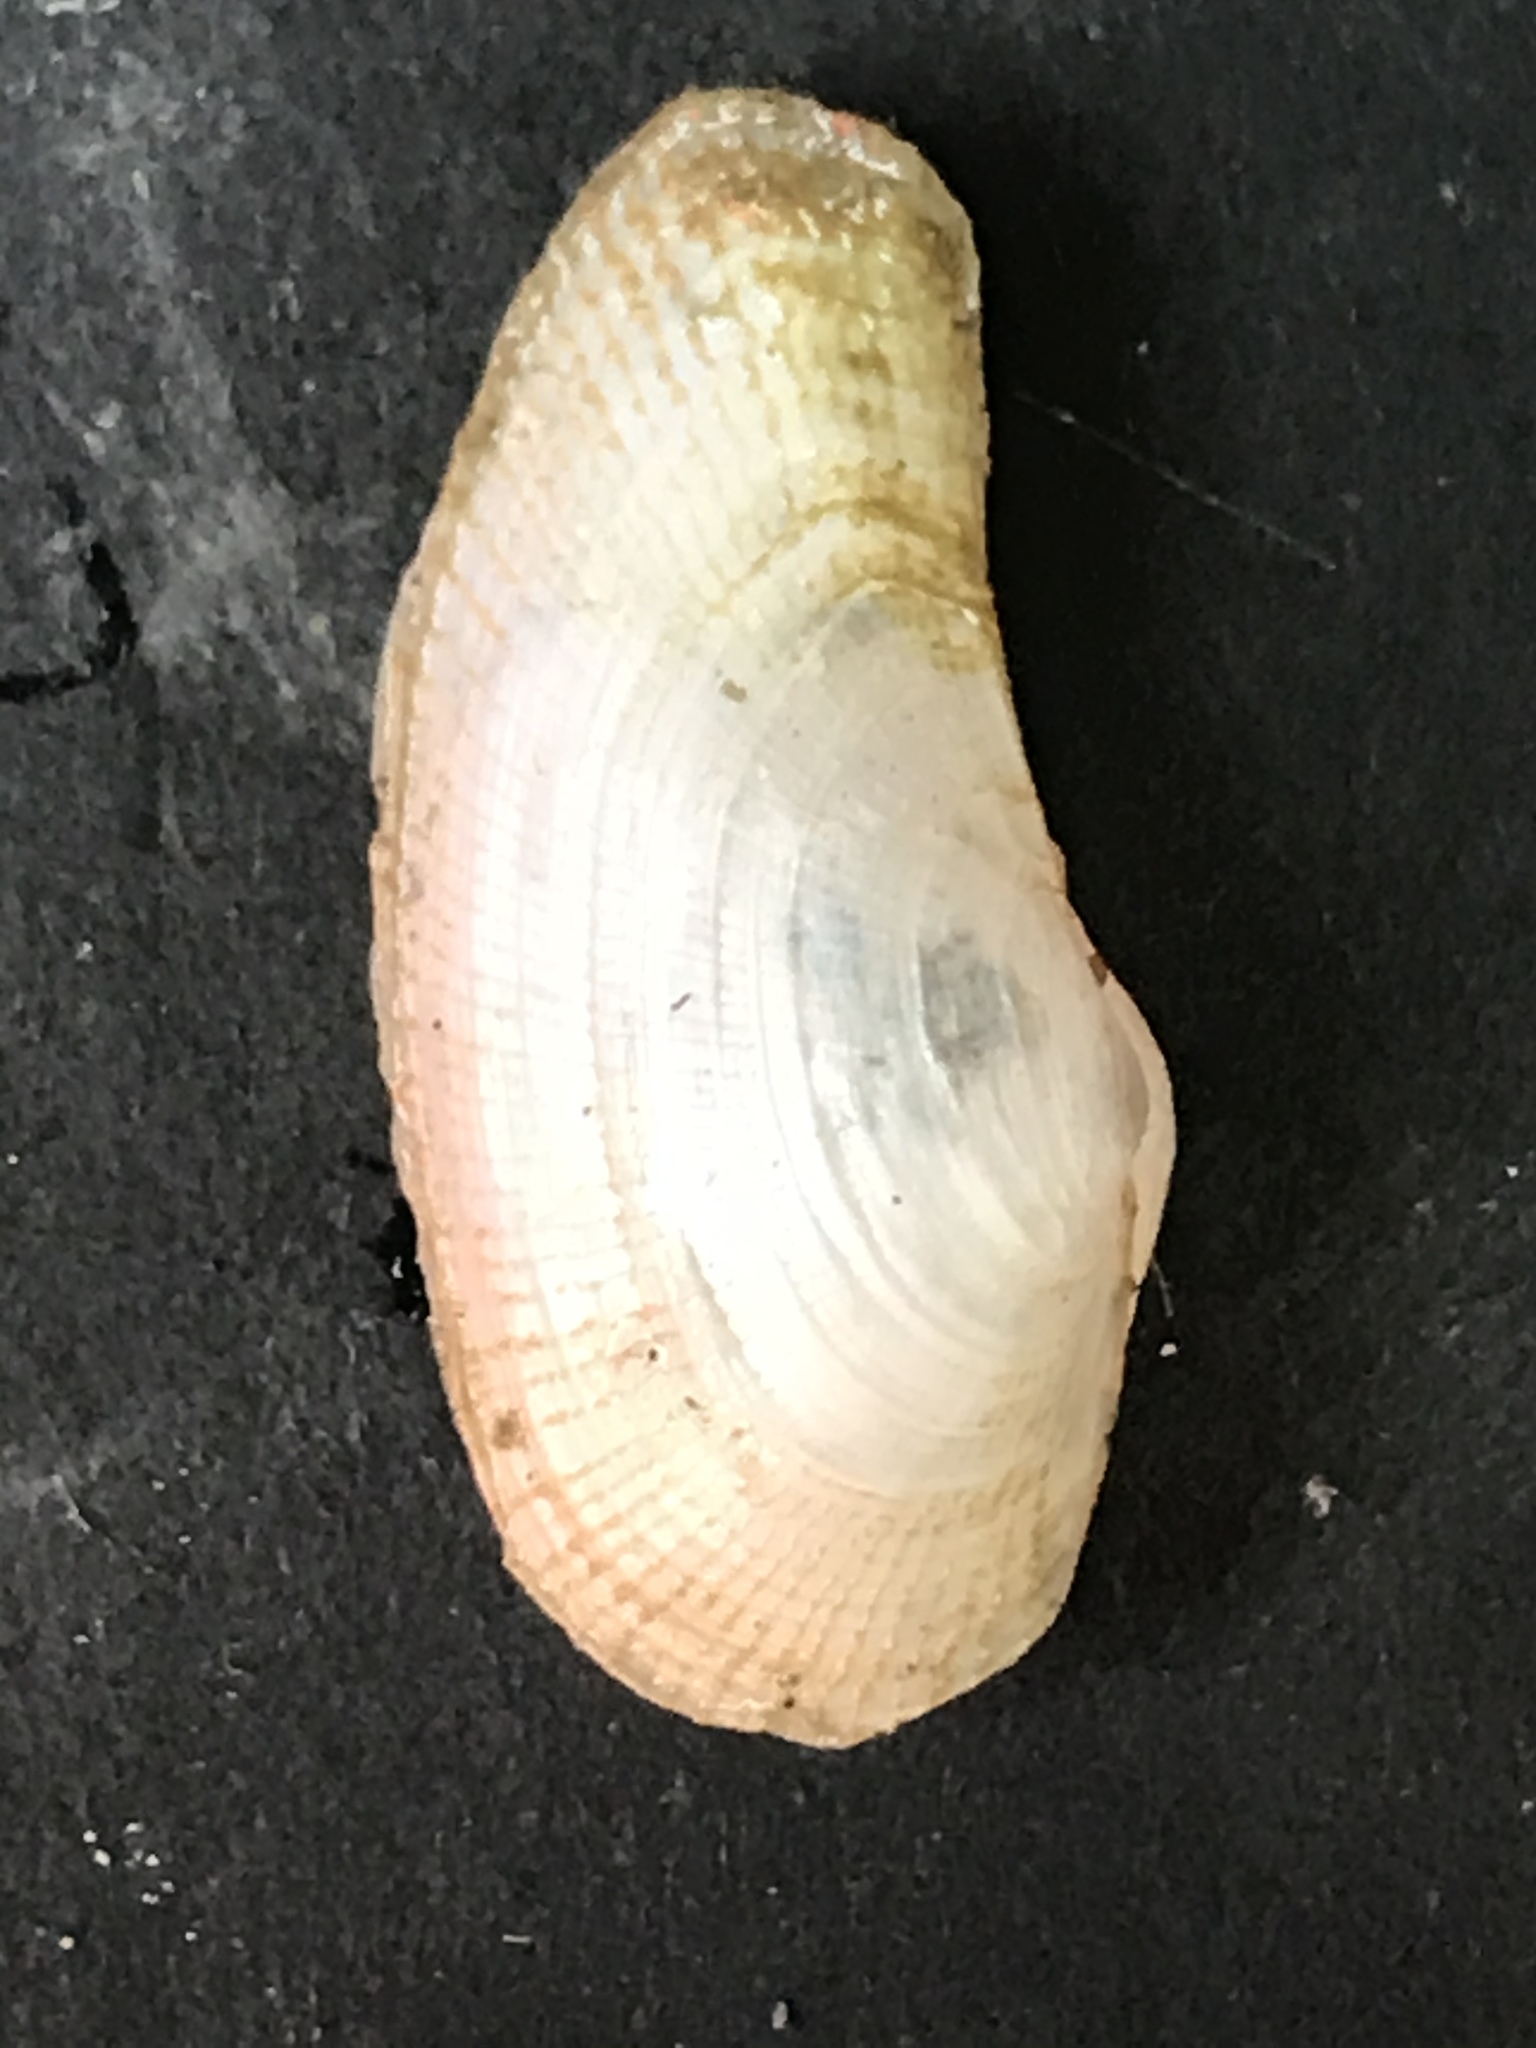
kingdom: Animalia
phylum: Mollusca
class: Bivalvia
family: Lyonsiidae
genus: Lyonsia
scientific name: Lyonsia californica
